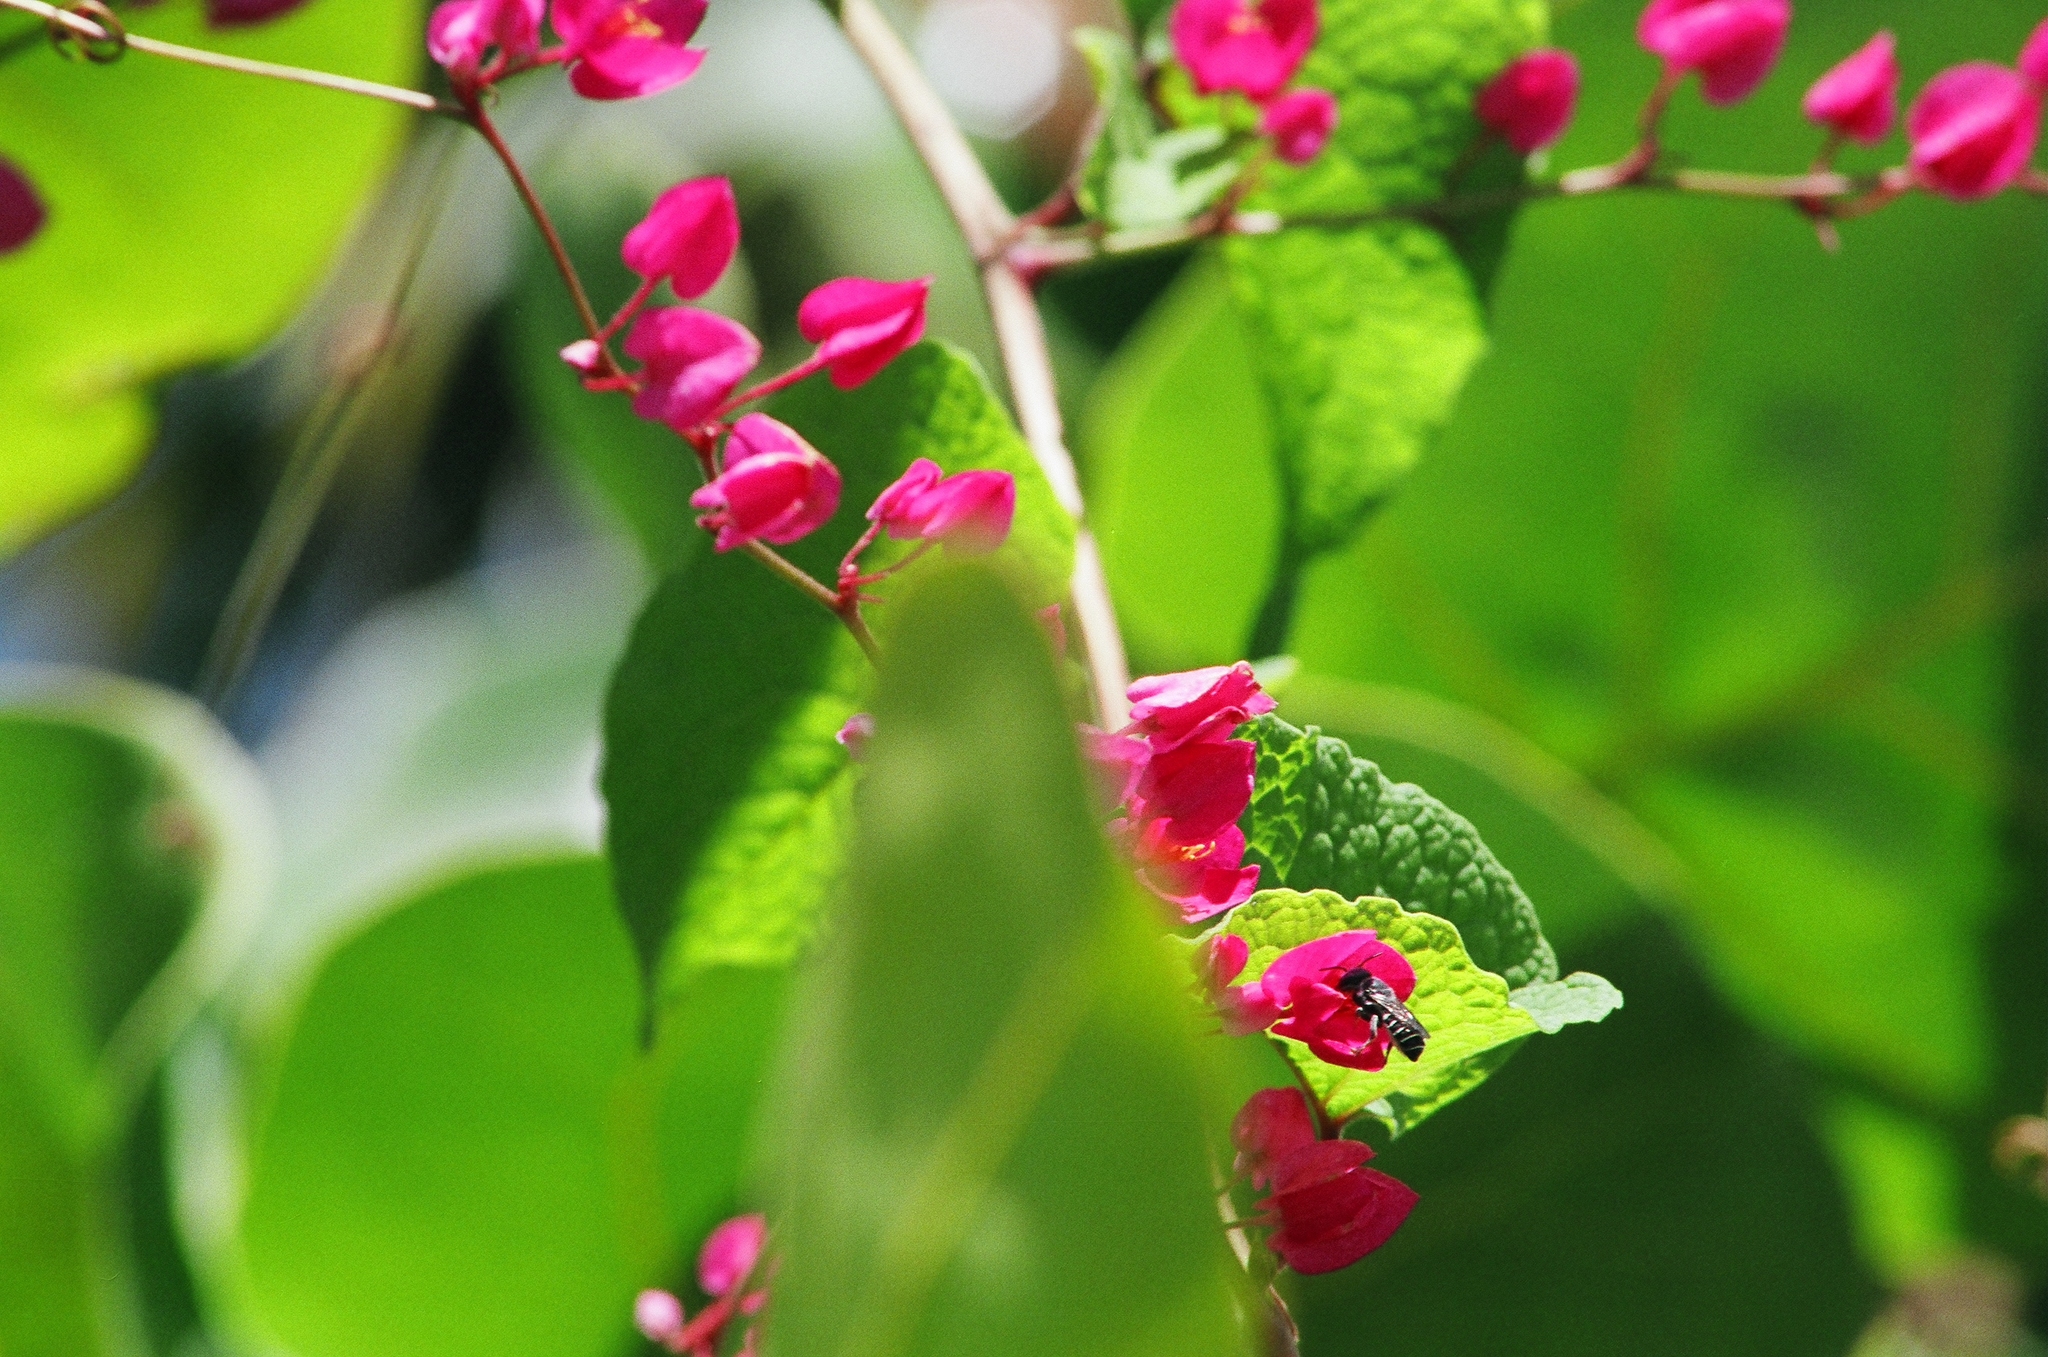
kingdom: Plantae
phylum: Tracheophyta
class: Magnoliopsida
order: Caryophyllales
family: Polygonaceae
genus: Antigonon
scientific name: Antigonon leptopus
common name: Coral vine
